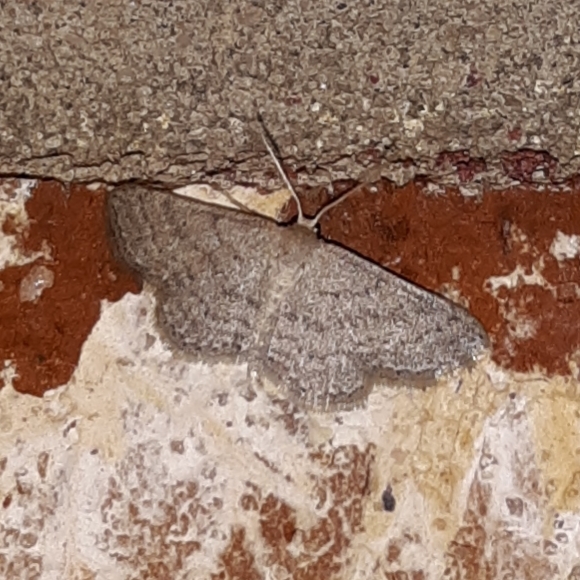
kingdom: Animalia
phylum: Arthropoda
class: Insecta
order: Lepidoptera
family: Geometridae
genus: Lobocleta
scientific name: Lobocleta ossularia
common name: Drab brown wave
